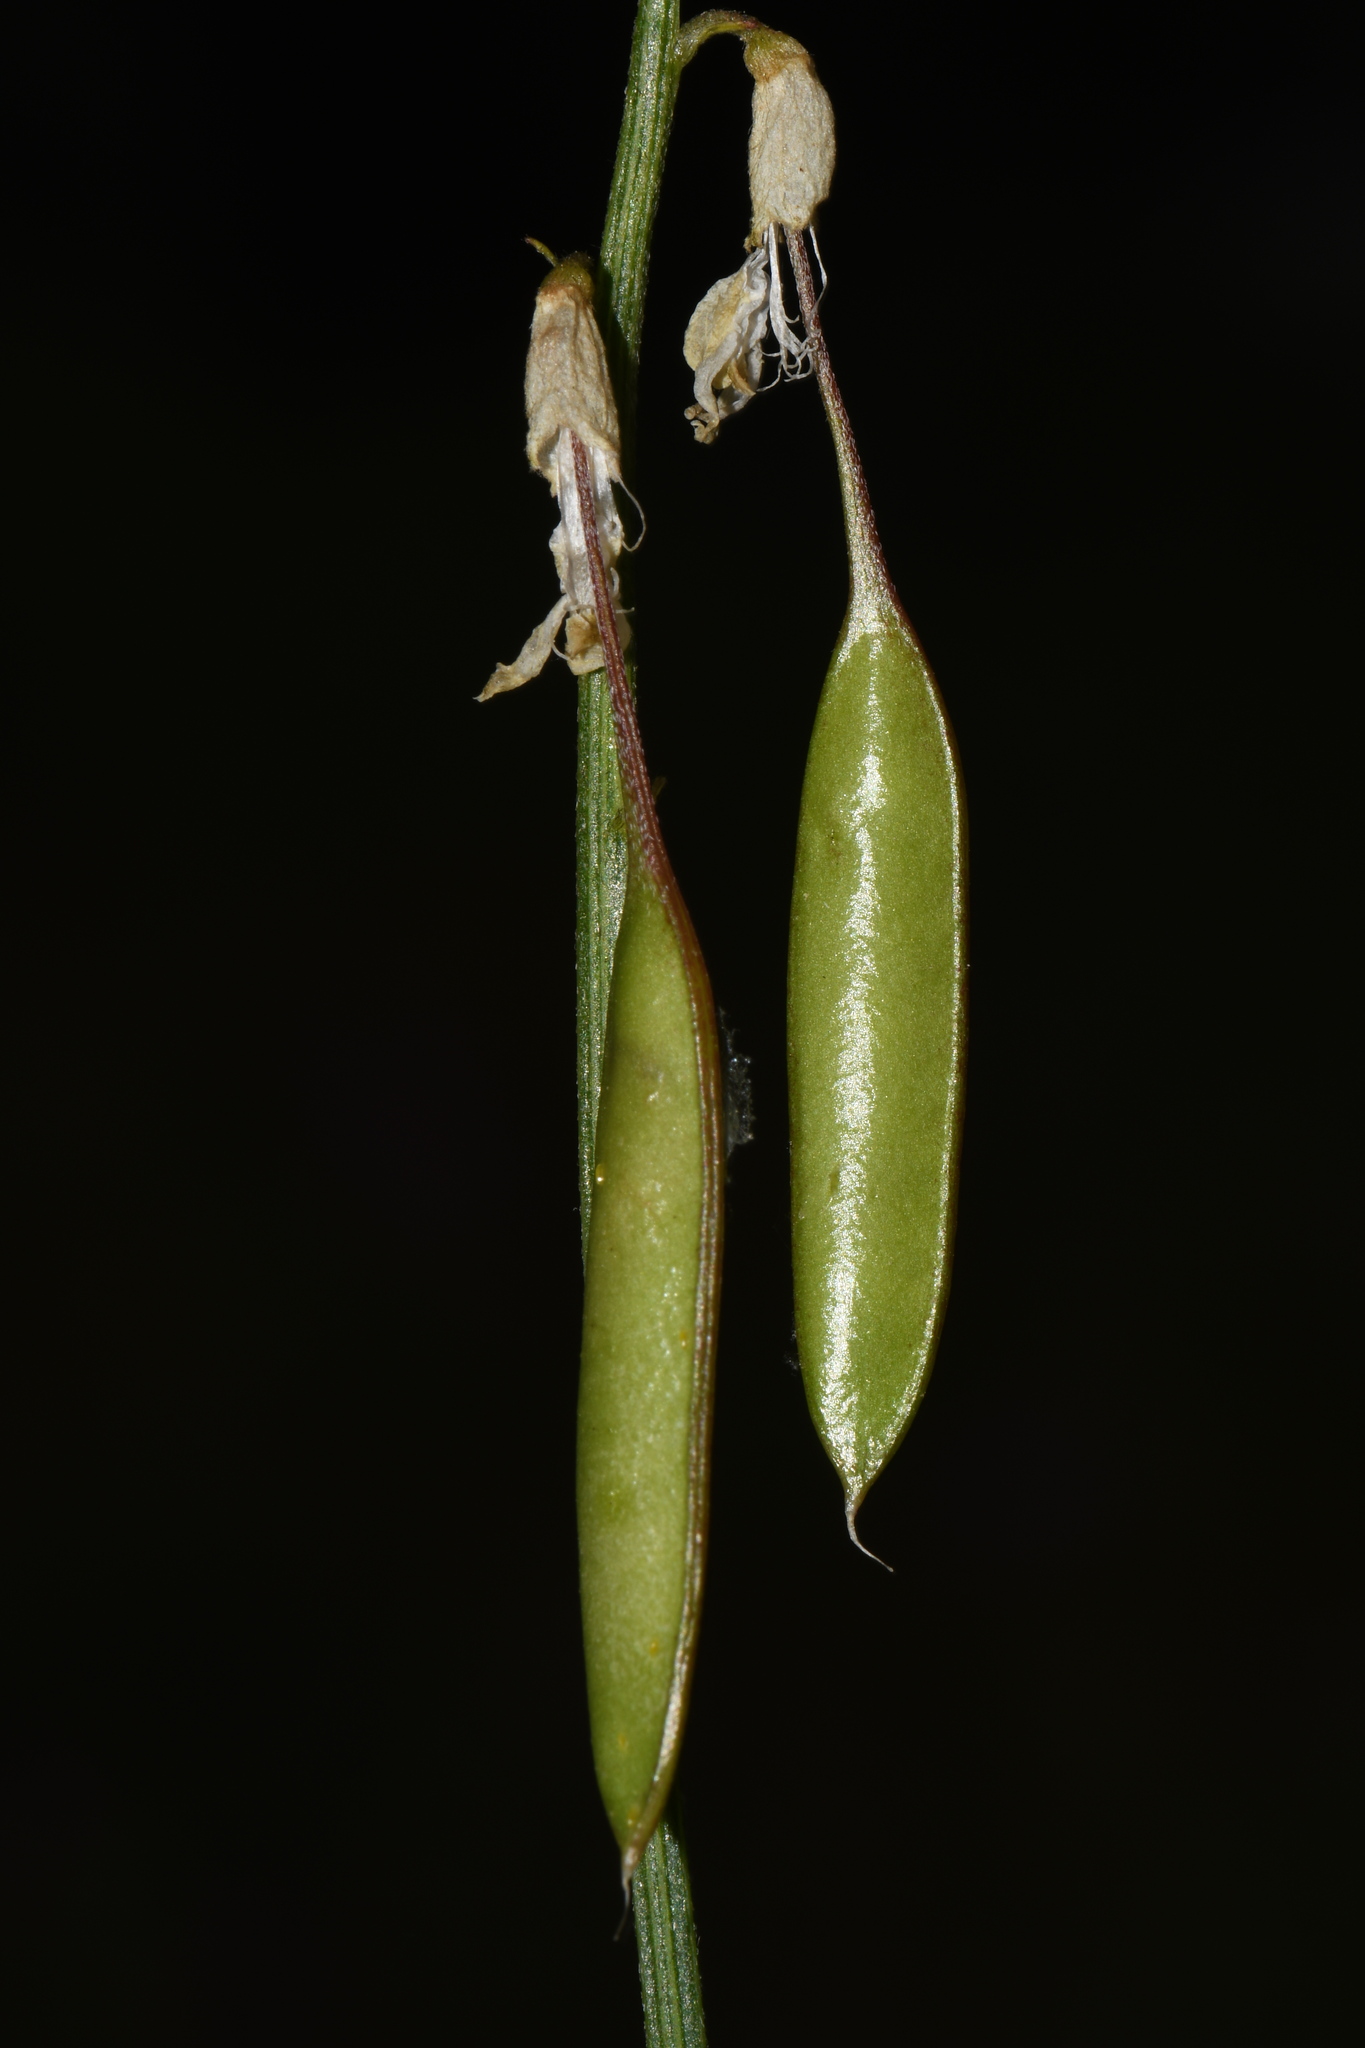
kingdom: Plantae
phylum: Tracheophyta
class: Magnoliopsida
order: Fabales
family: Fabaceae
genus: Astragalus
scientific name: Astragalus filipes
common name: Basalt milk-vetch
